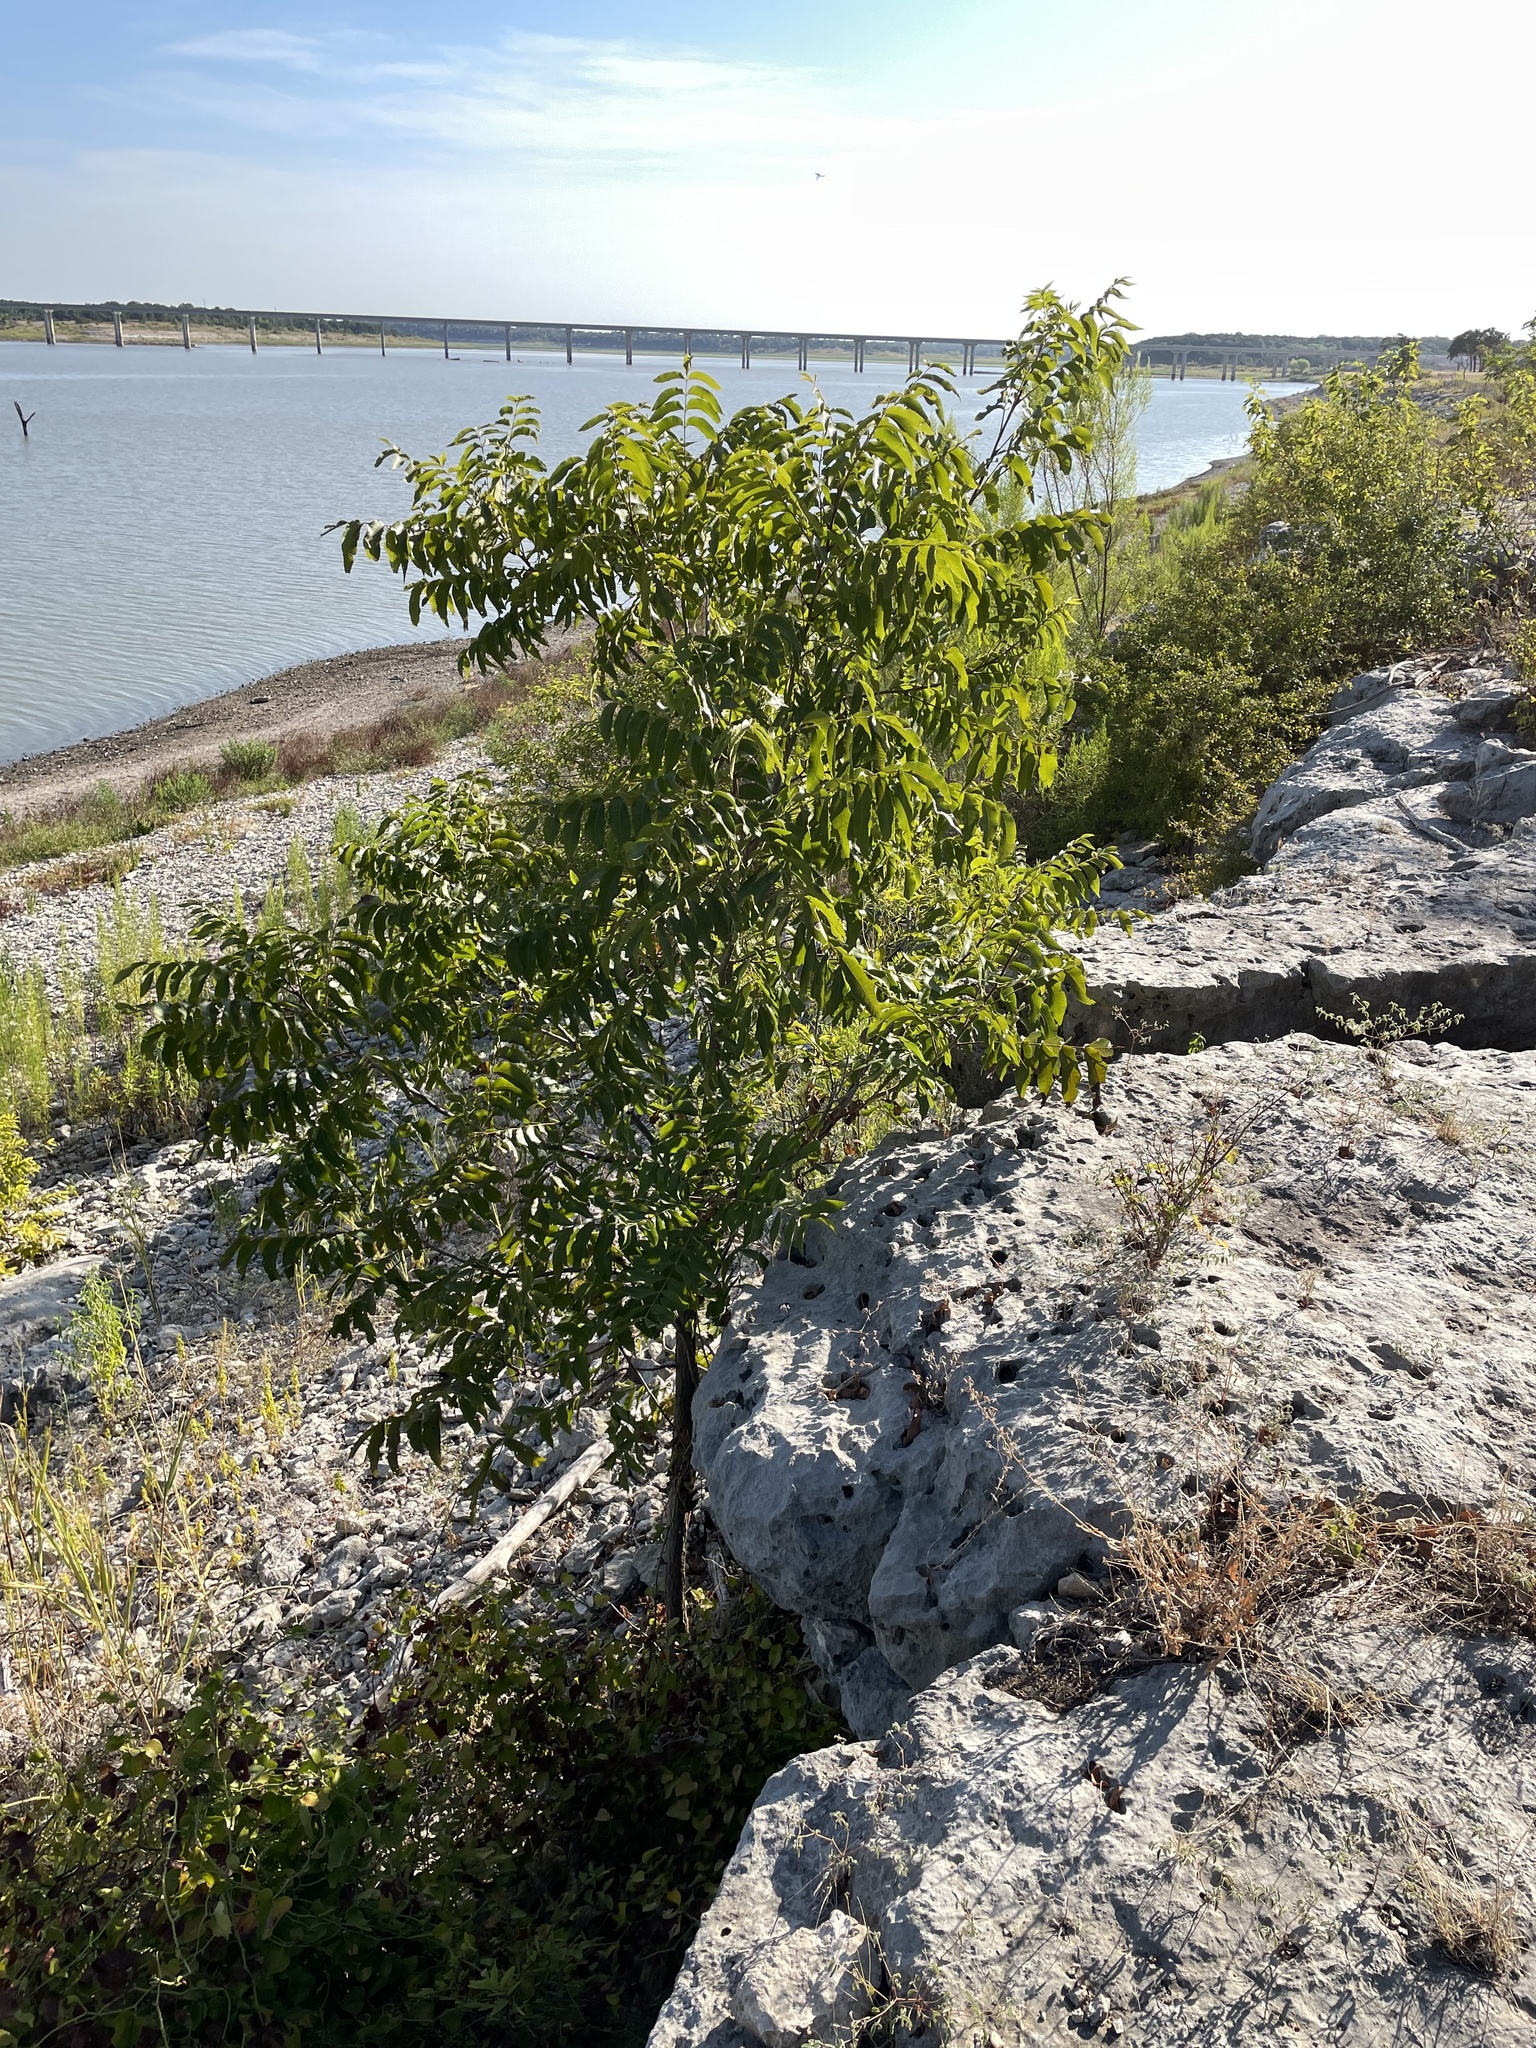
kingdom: Plantae
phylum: Tracheophyta
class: Magnoliopsida
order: Fagales
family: Juglandaceae
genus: Carya
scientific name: Carya illinoinensis
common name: Pecan
